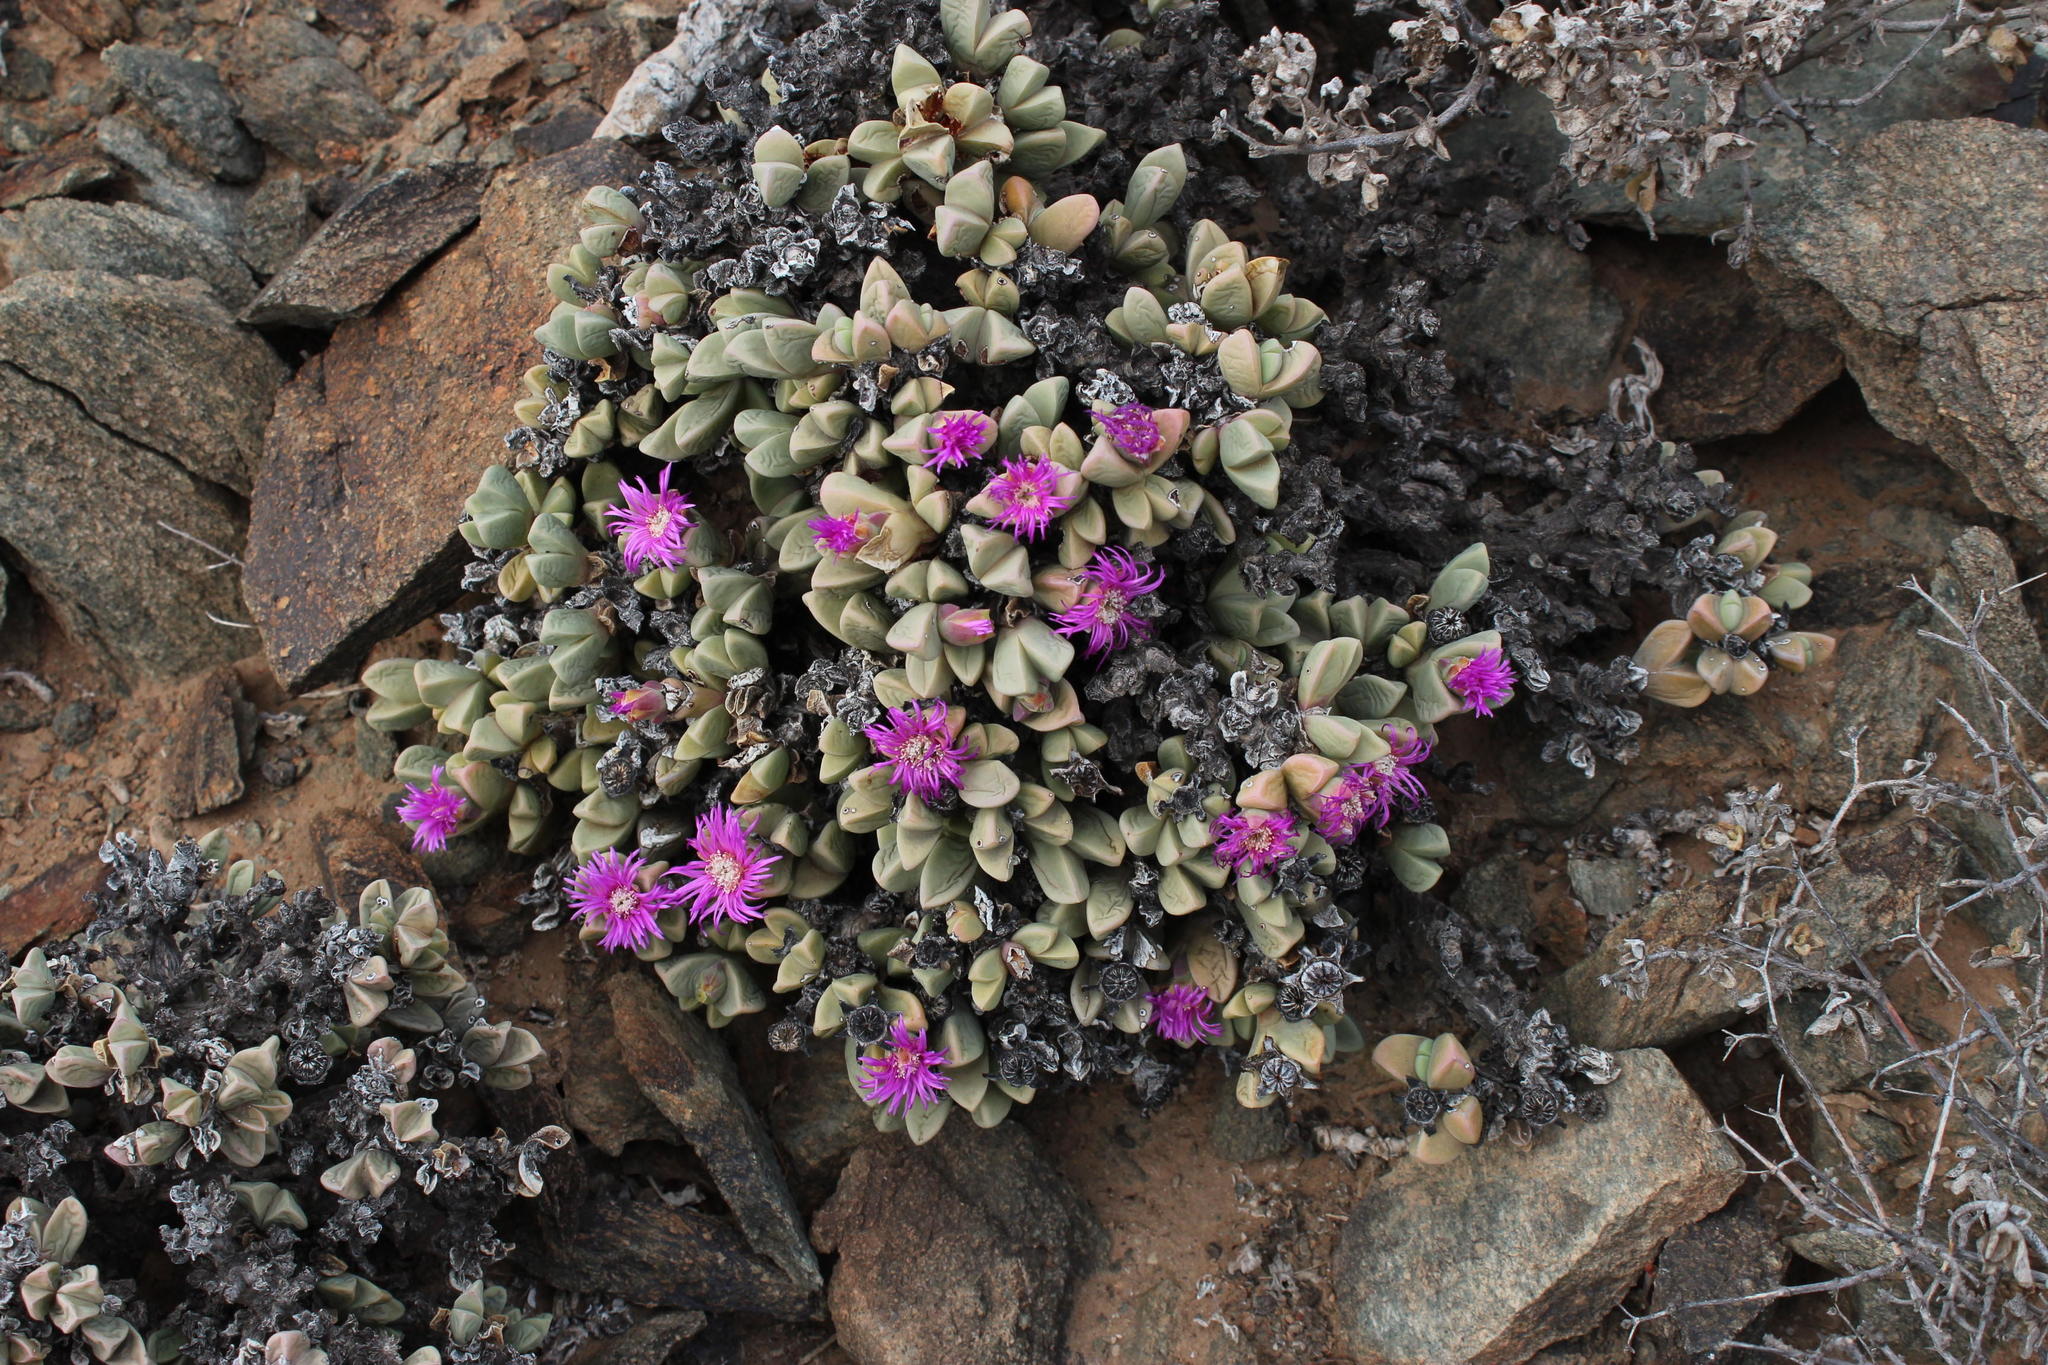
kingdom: Plantae
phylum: Tracheophyta
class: Magnoliopsida
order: Caryophyllales
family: Aizoaceae
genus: Schlechteranthus
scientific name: Schlechteranthus hallii
